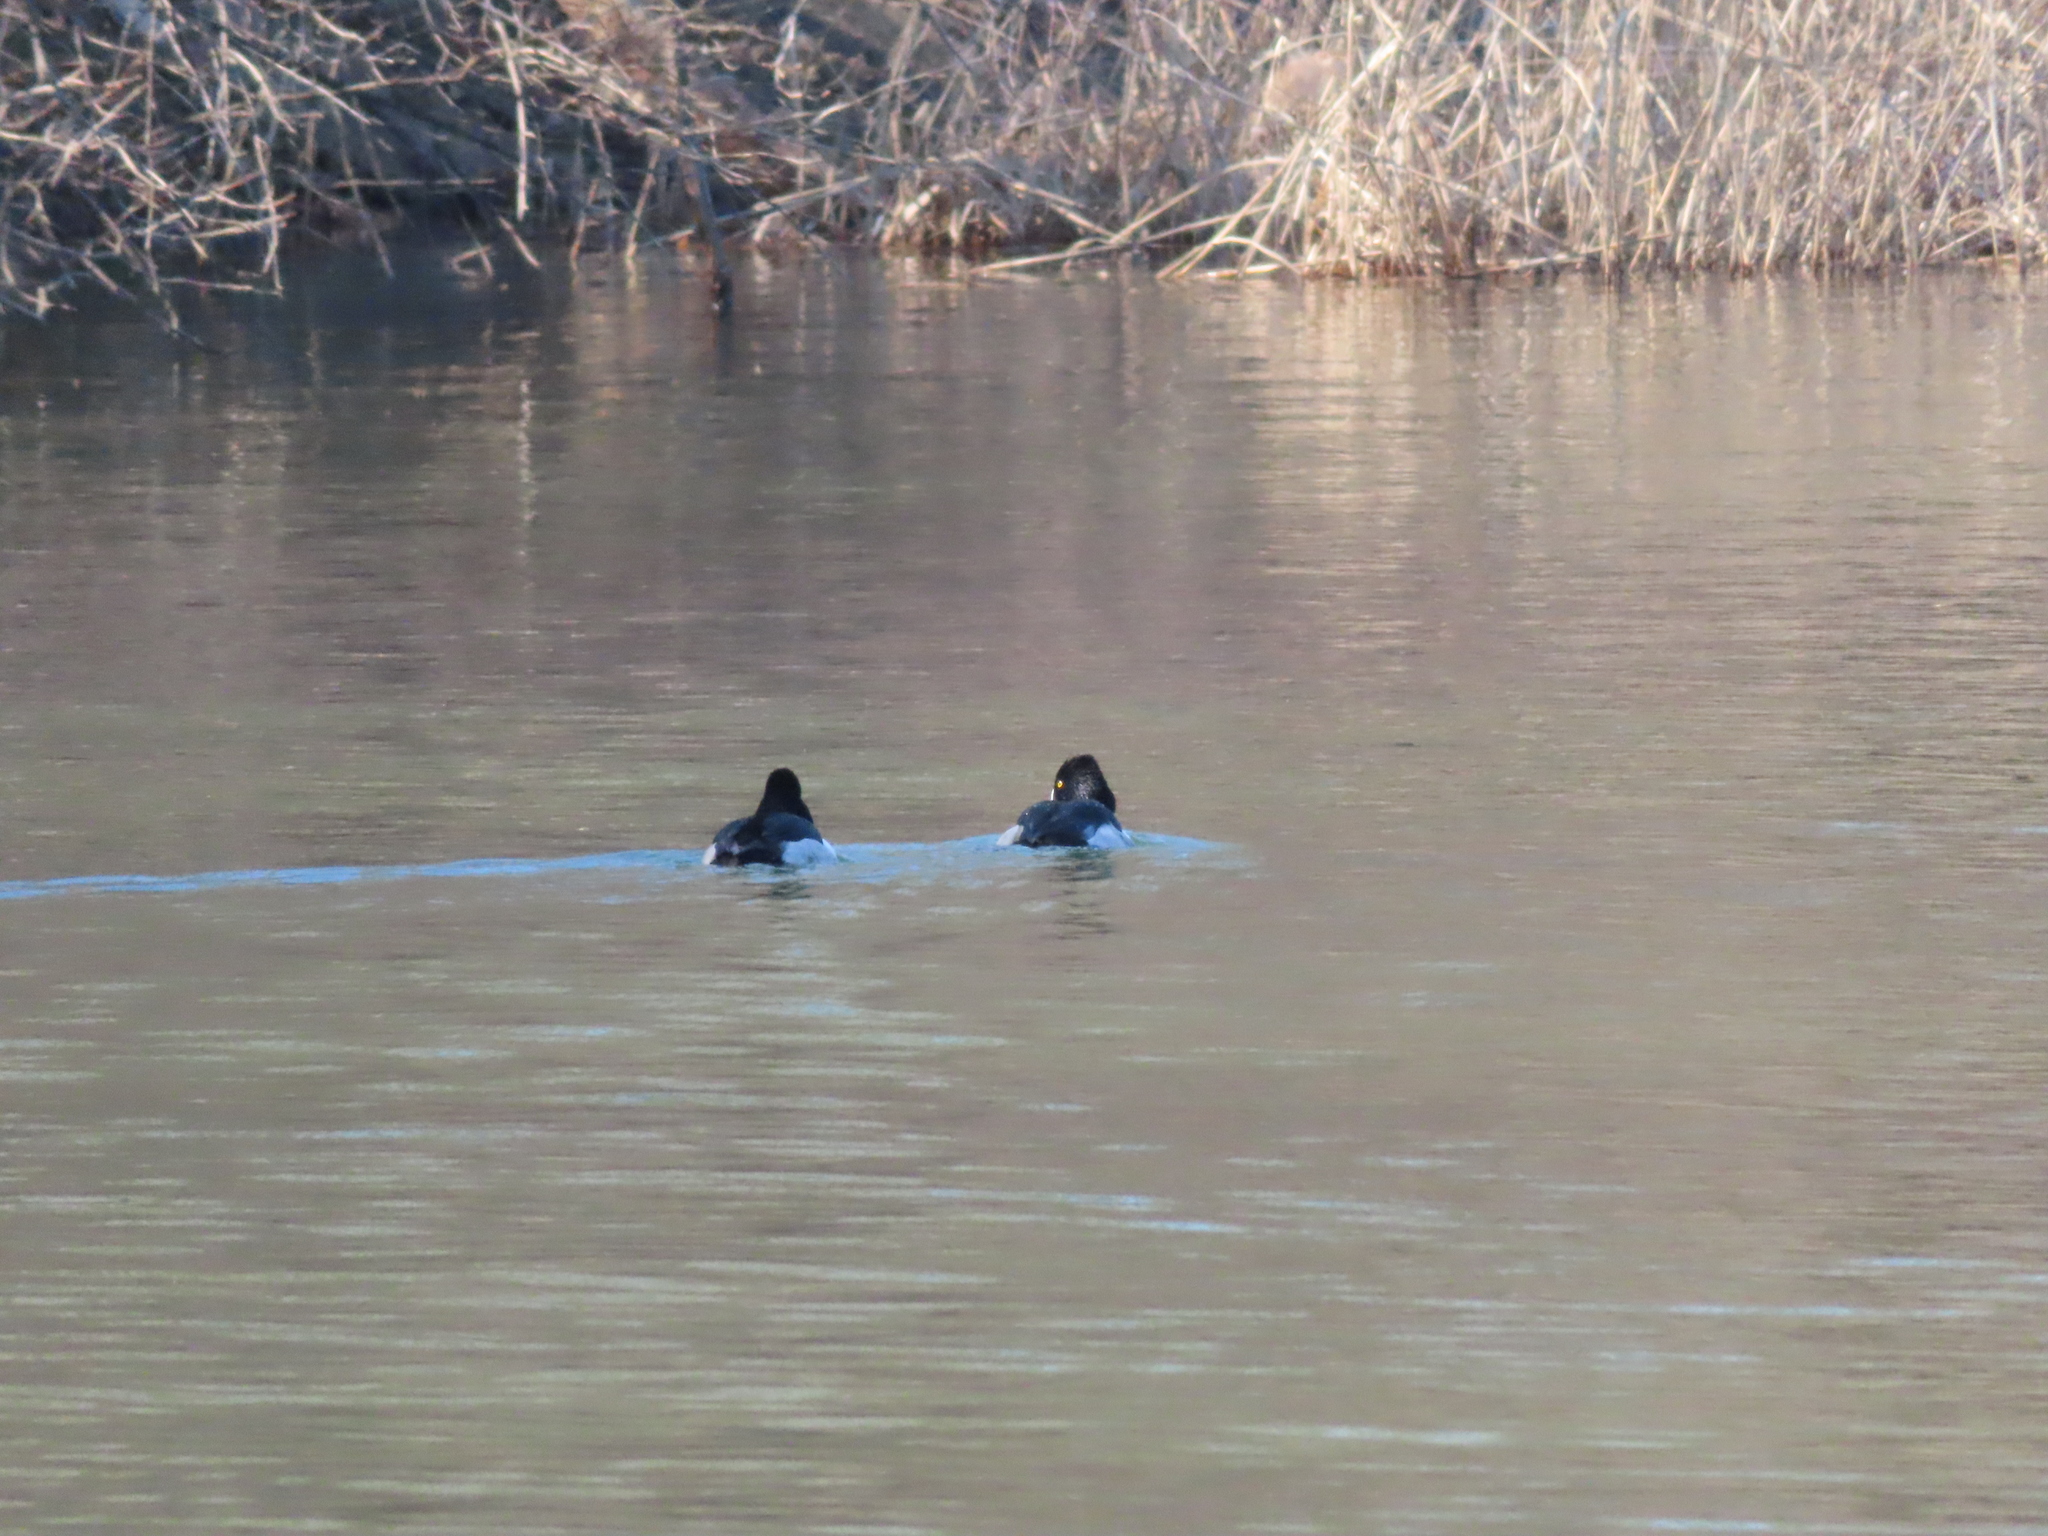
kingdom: Animalia
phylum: Chordata
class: Aves
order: Anseriformes
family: Anatidae
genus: Aythya
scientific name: Aythya collaris
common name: Ring-necked duck
